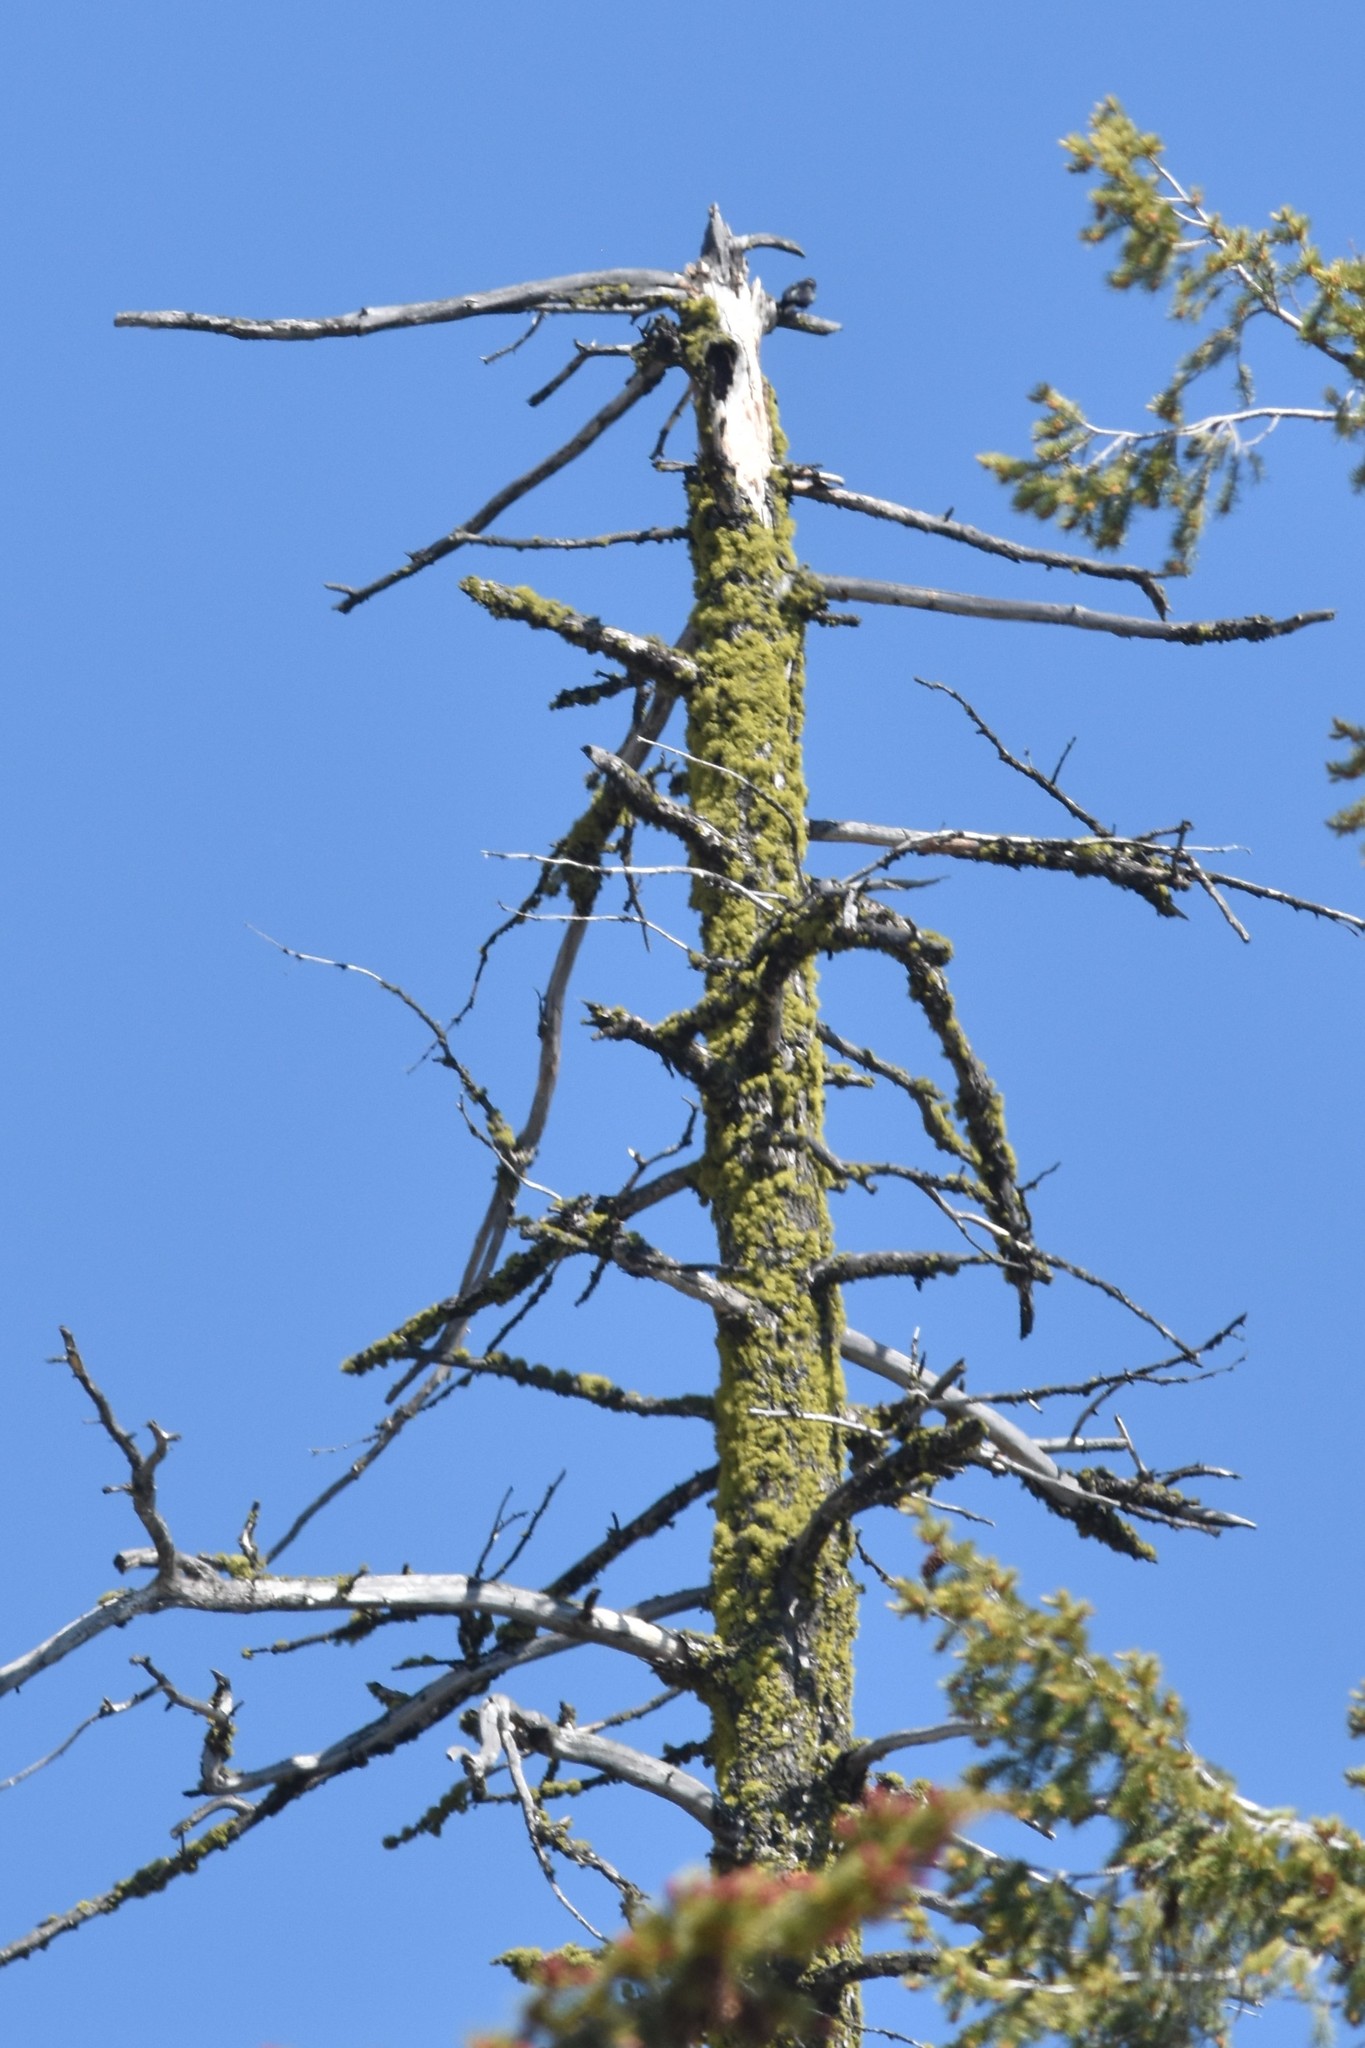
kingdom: Animalia
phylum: Chordata
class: Aves
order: Piciformes
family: Picidae
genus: Melanerpes
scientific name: Melanerpes lewis
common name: Lewis's woodpecker
